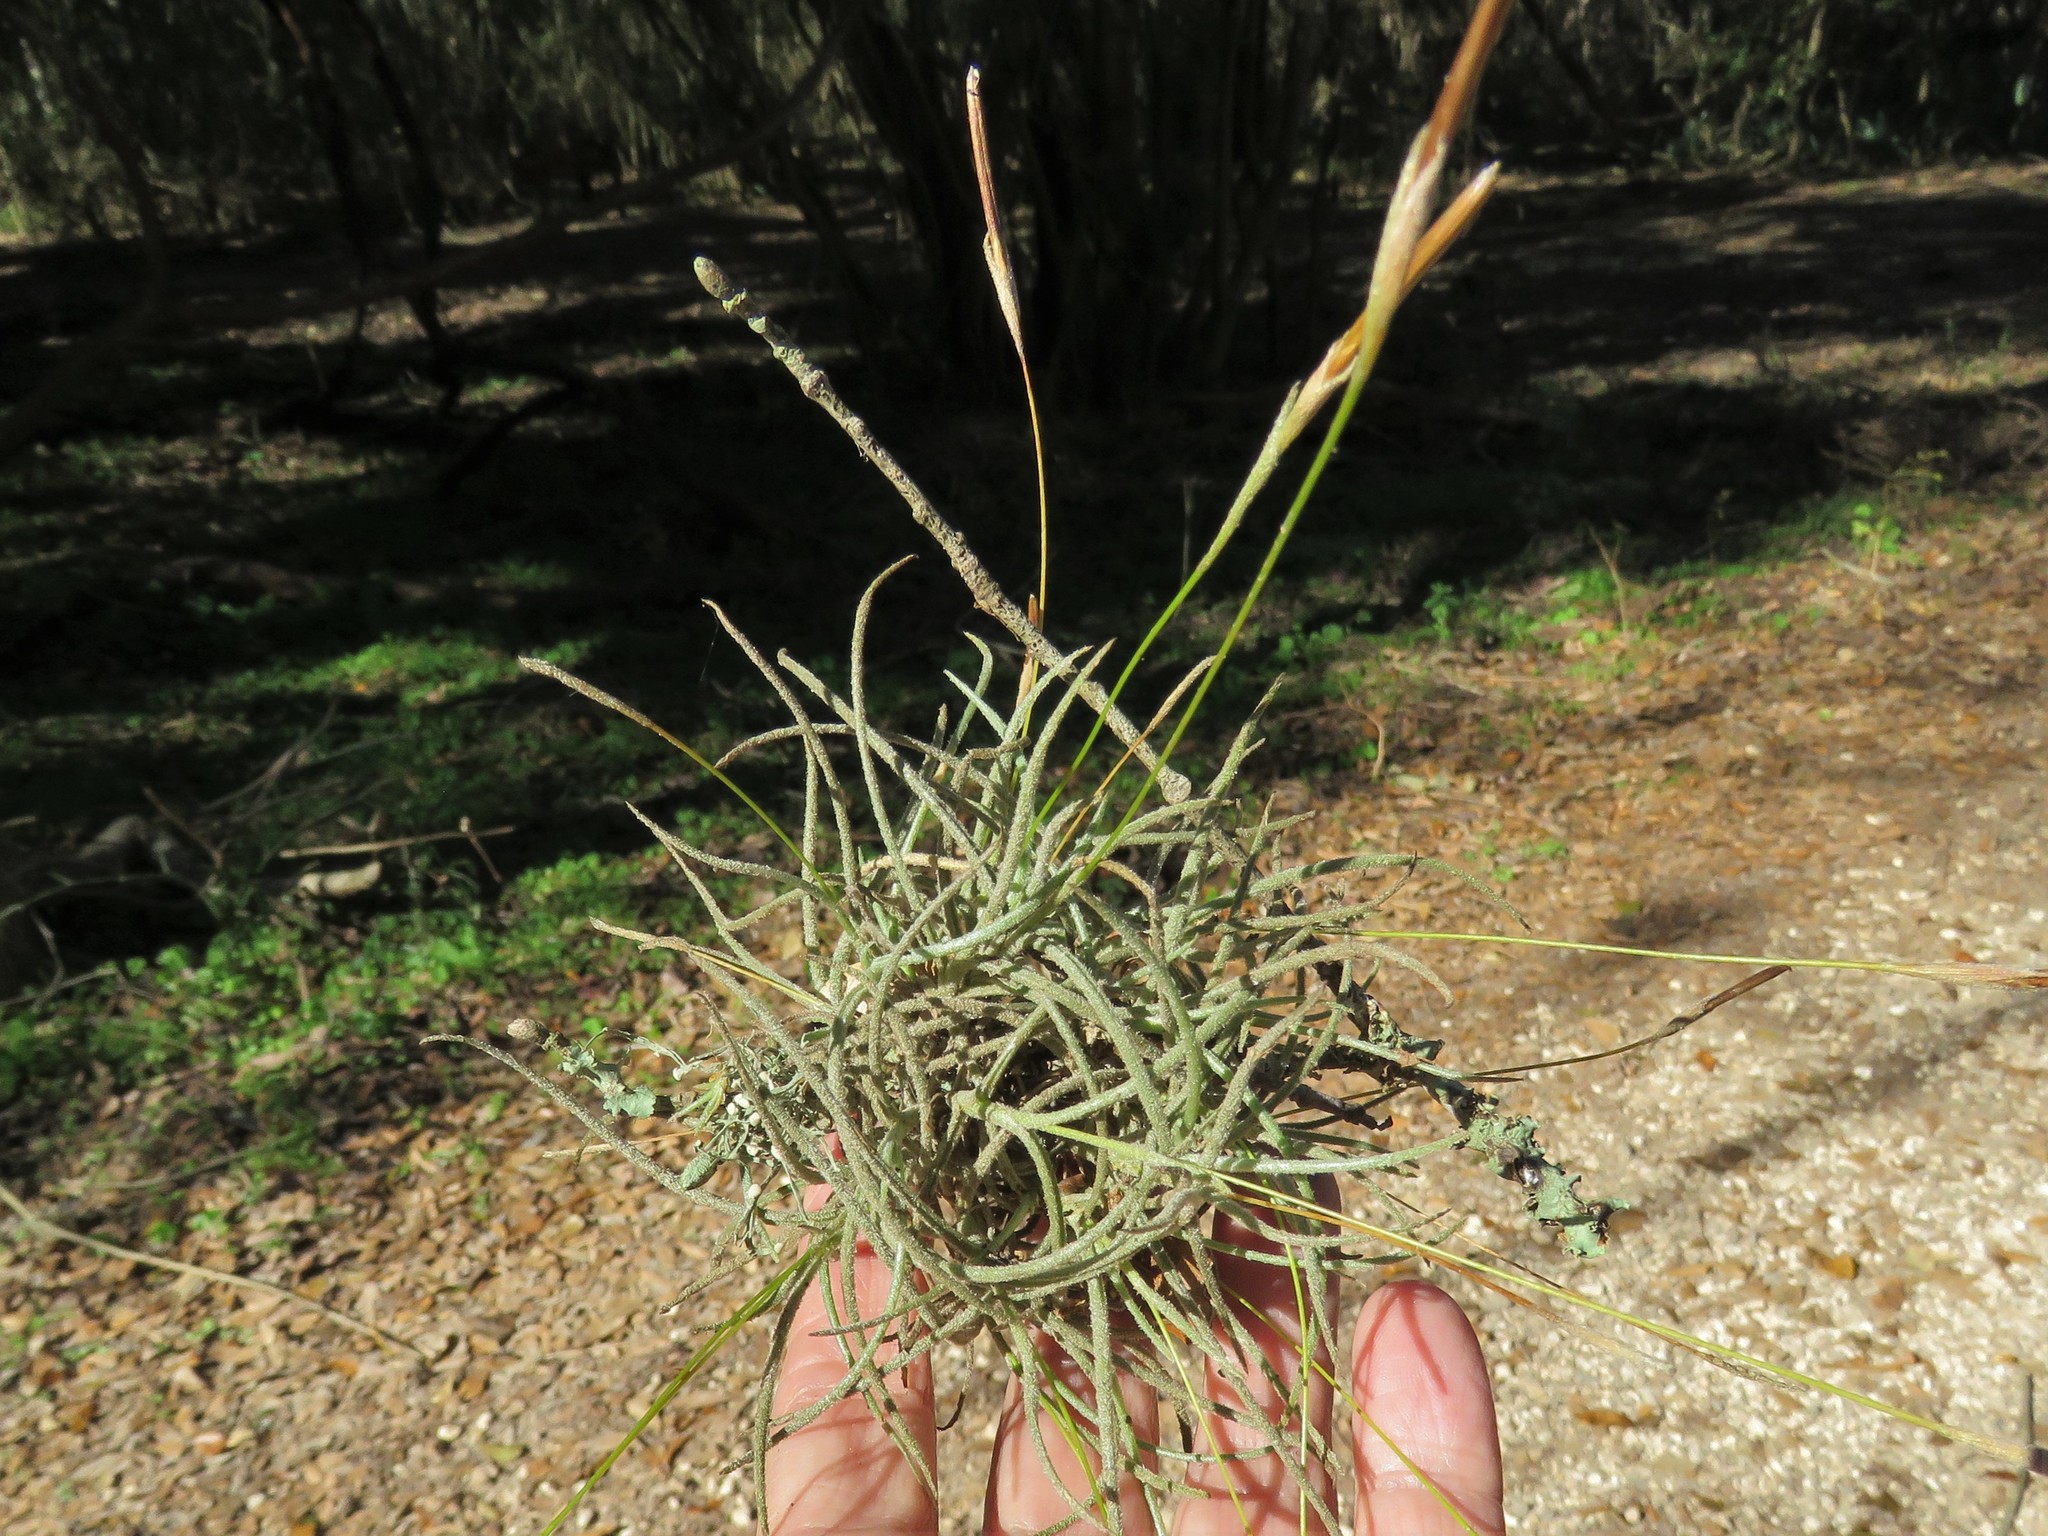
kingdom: Plantae
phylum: Tracheophyta
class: Liliopsida
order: Poales
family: Bromeliaceae
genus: Tillandsia
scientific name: Tillandsia recurvata
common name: Small ballmoss
